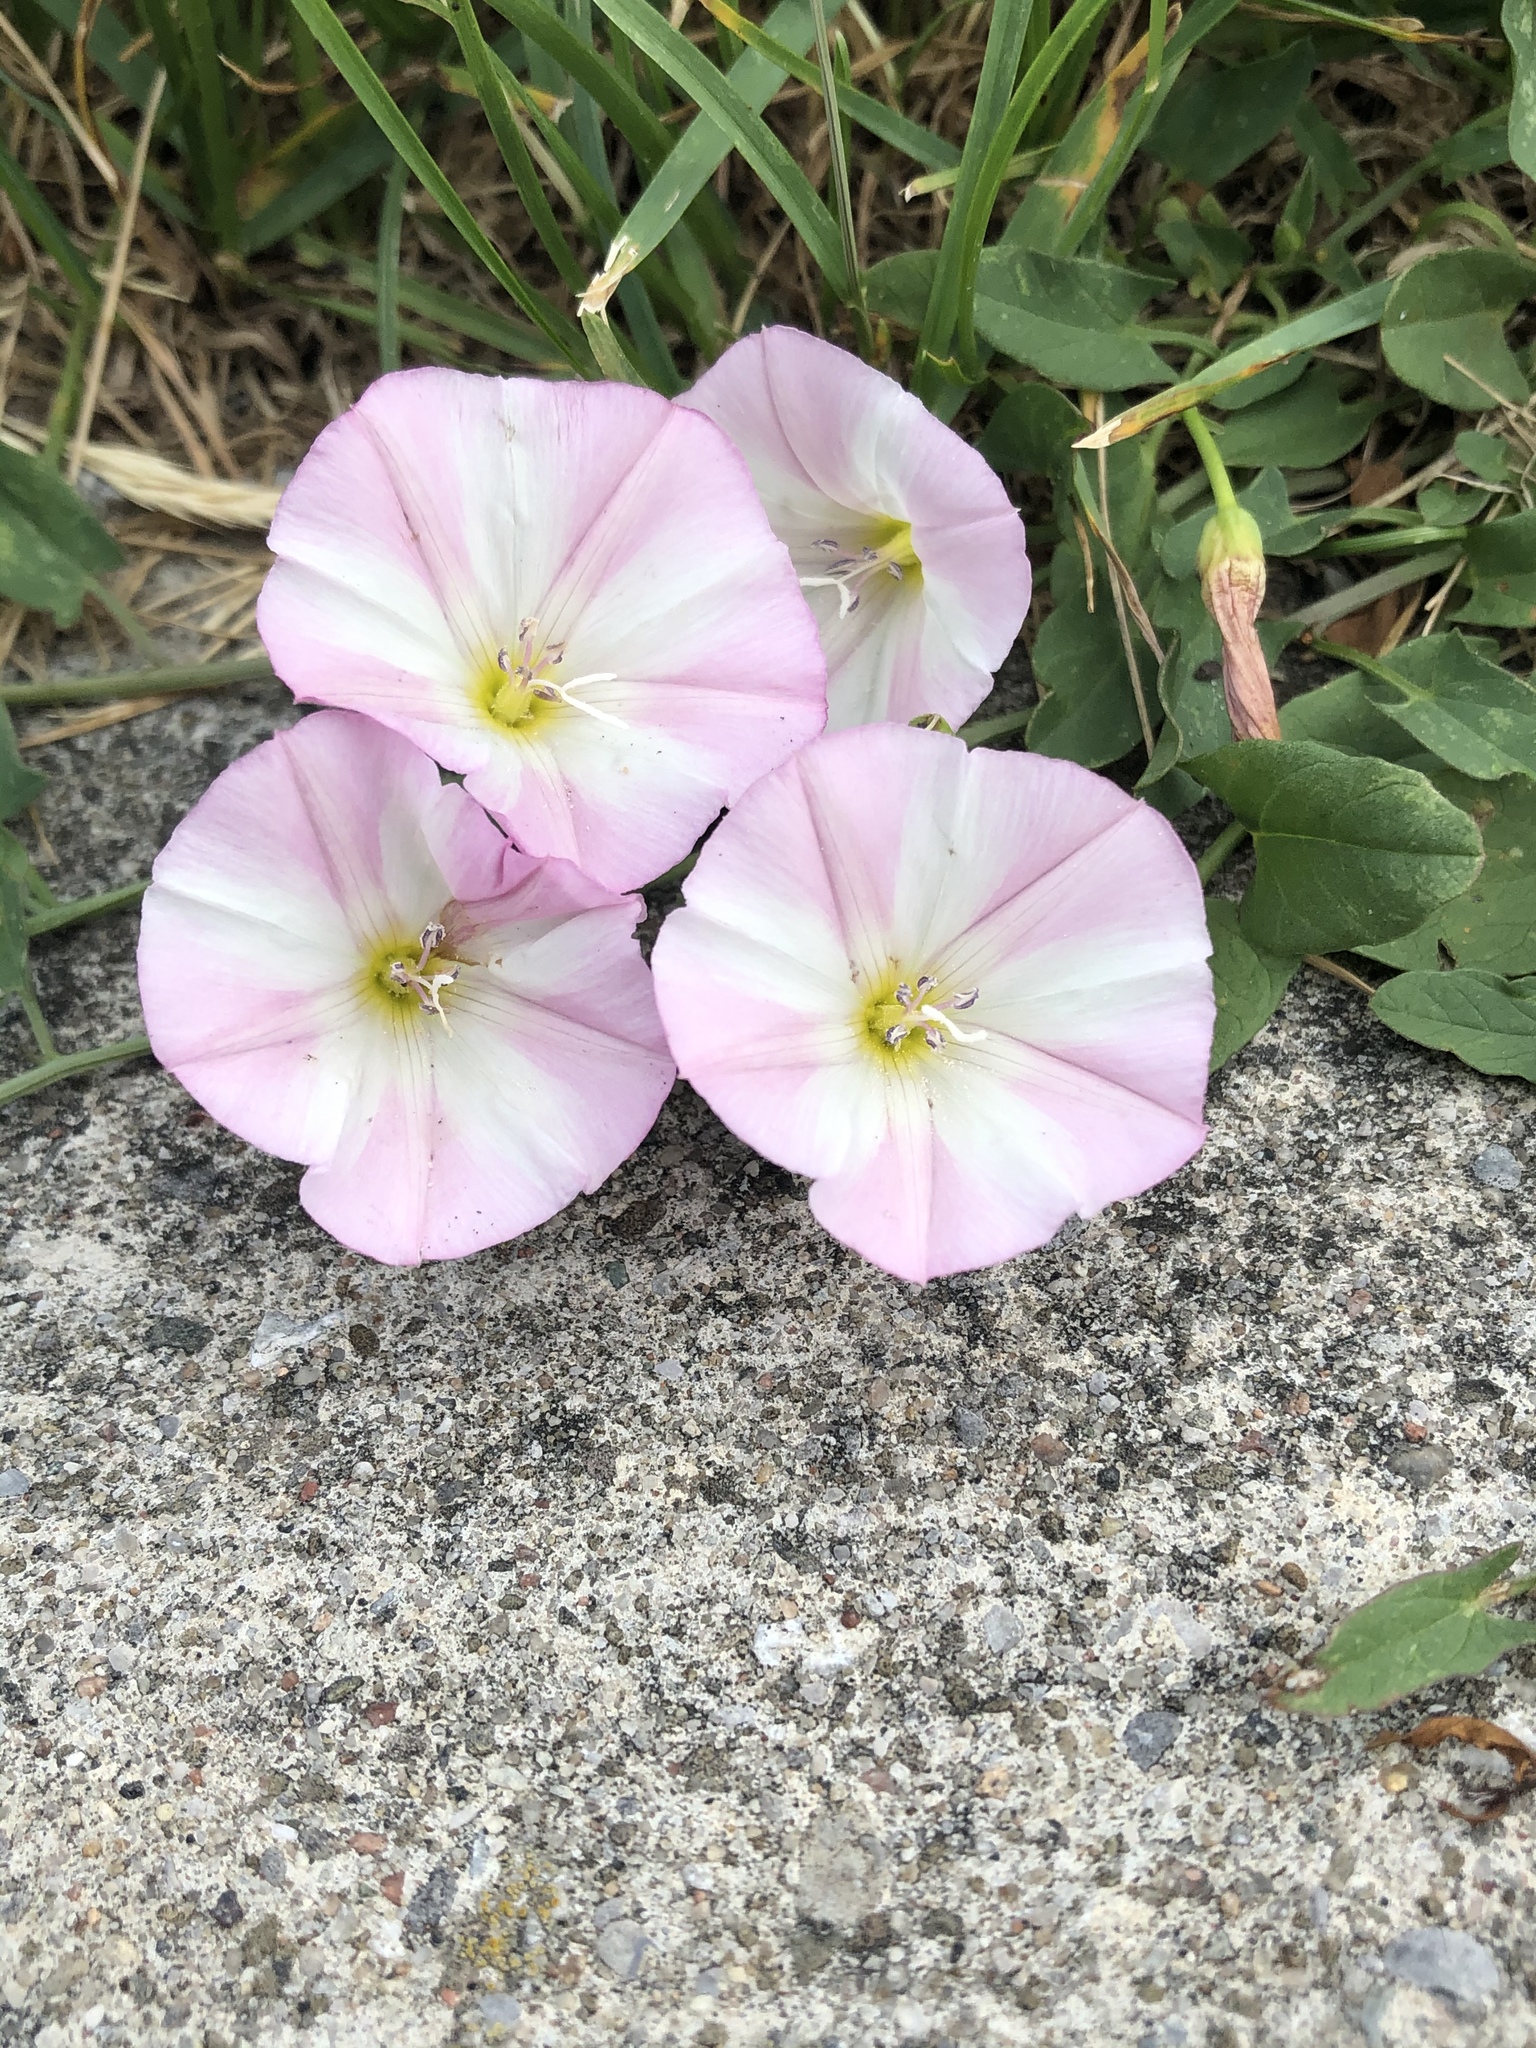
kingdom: Plantae
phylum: Tracheophyta
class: Magnoliopsida
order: Solanales
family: Convolvulaceae
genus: Convolvulus
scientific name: Convolvulus arvensis
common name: Field bindweed
